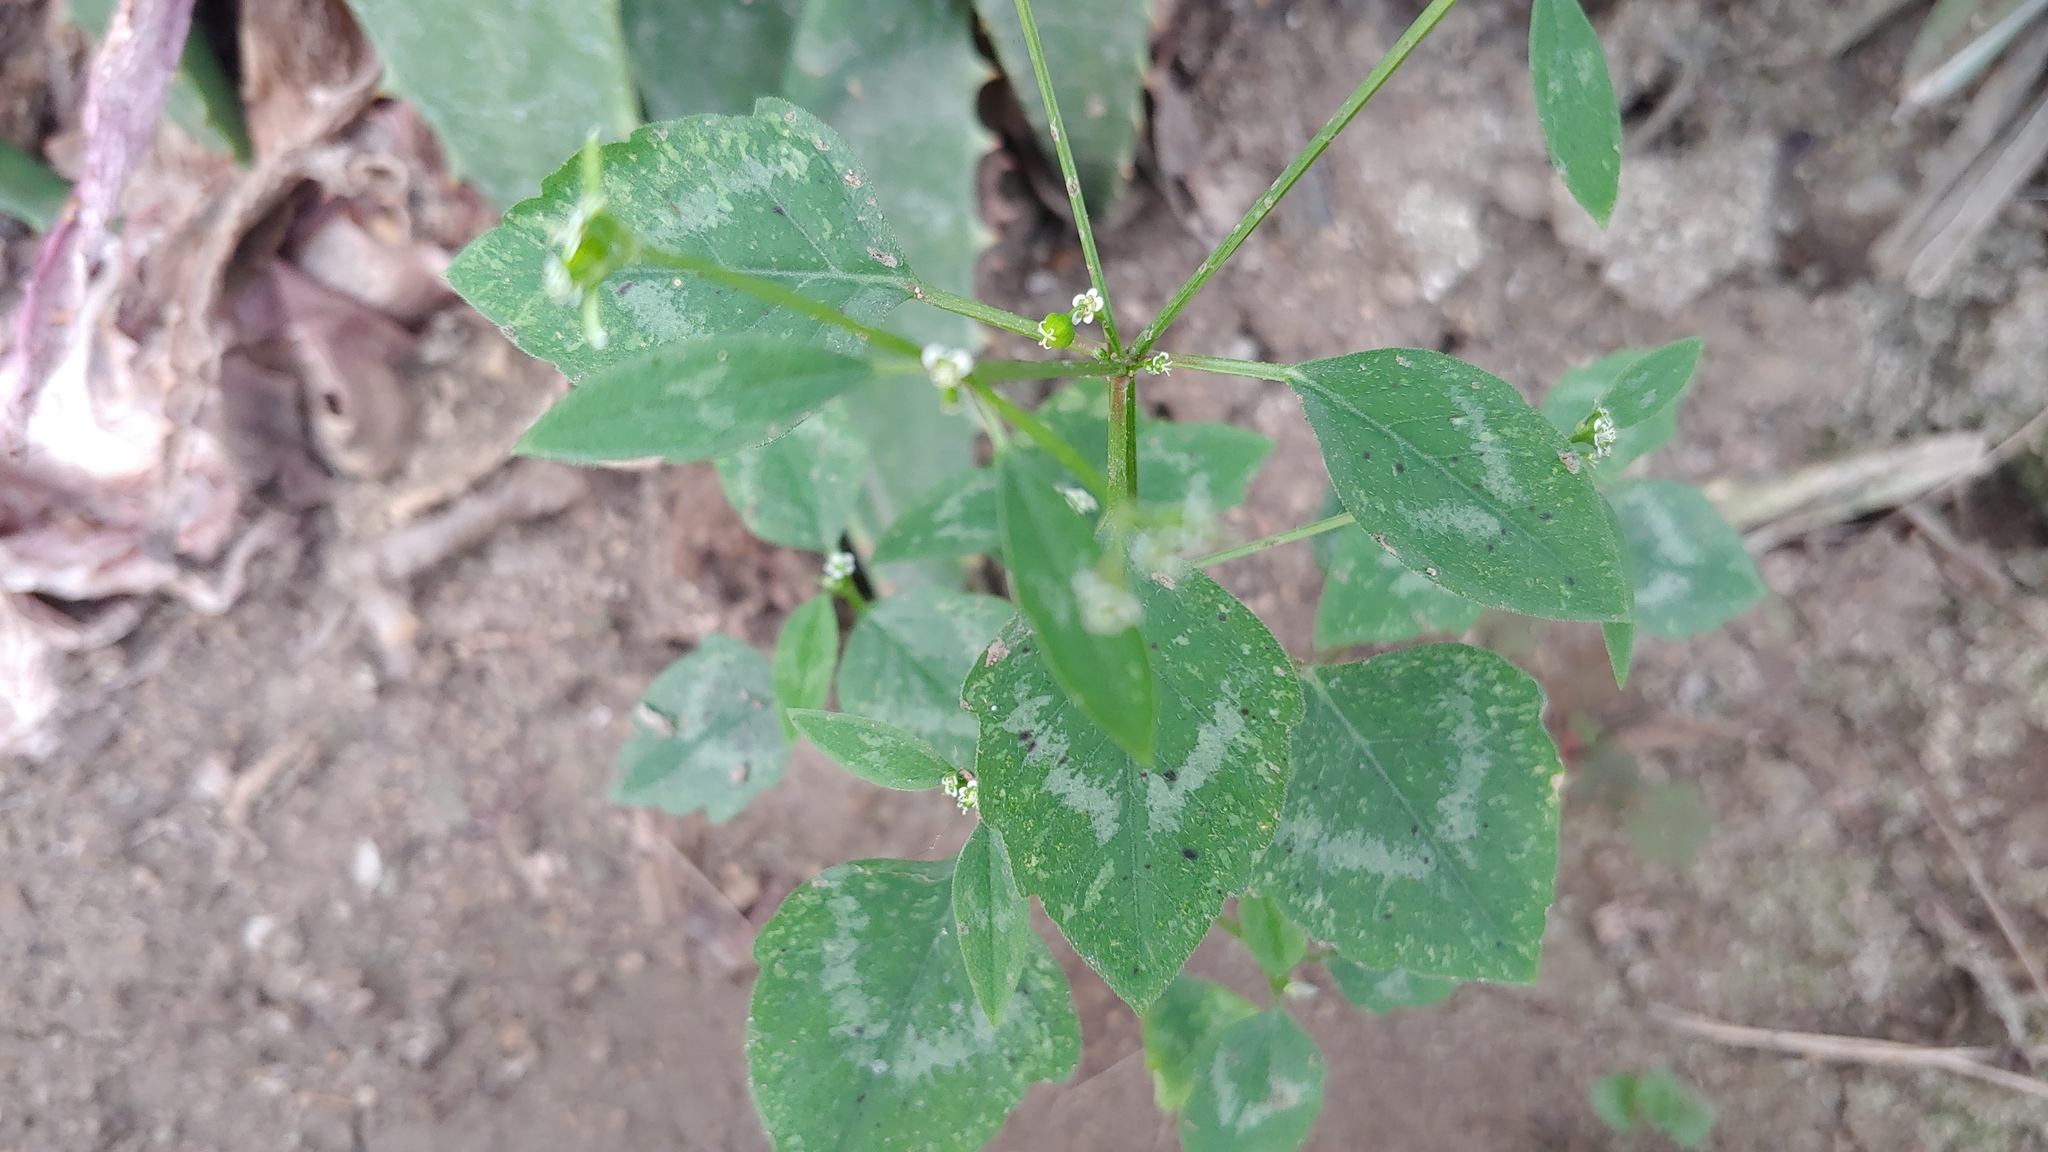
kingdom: Plantae
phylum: Tracheophyta
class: Magnoliopsida
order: Malpighiales
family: Euphorbiaceae
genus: Euphorbia
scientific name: Euphorbia graminea
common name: Grassleaf spurge
